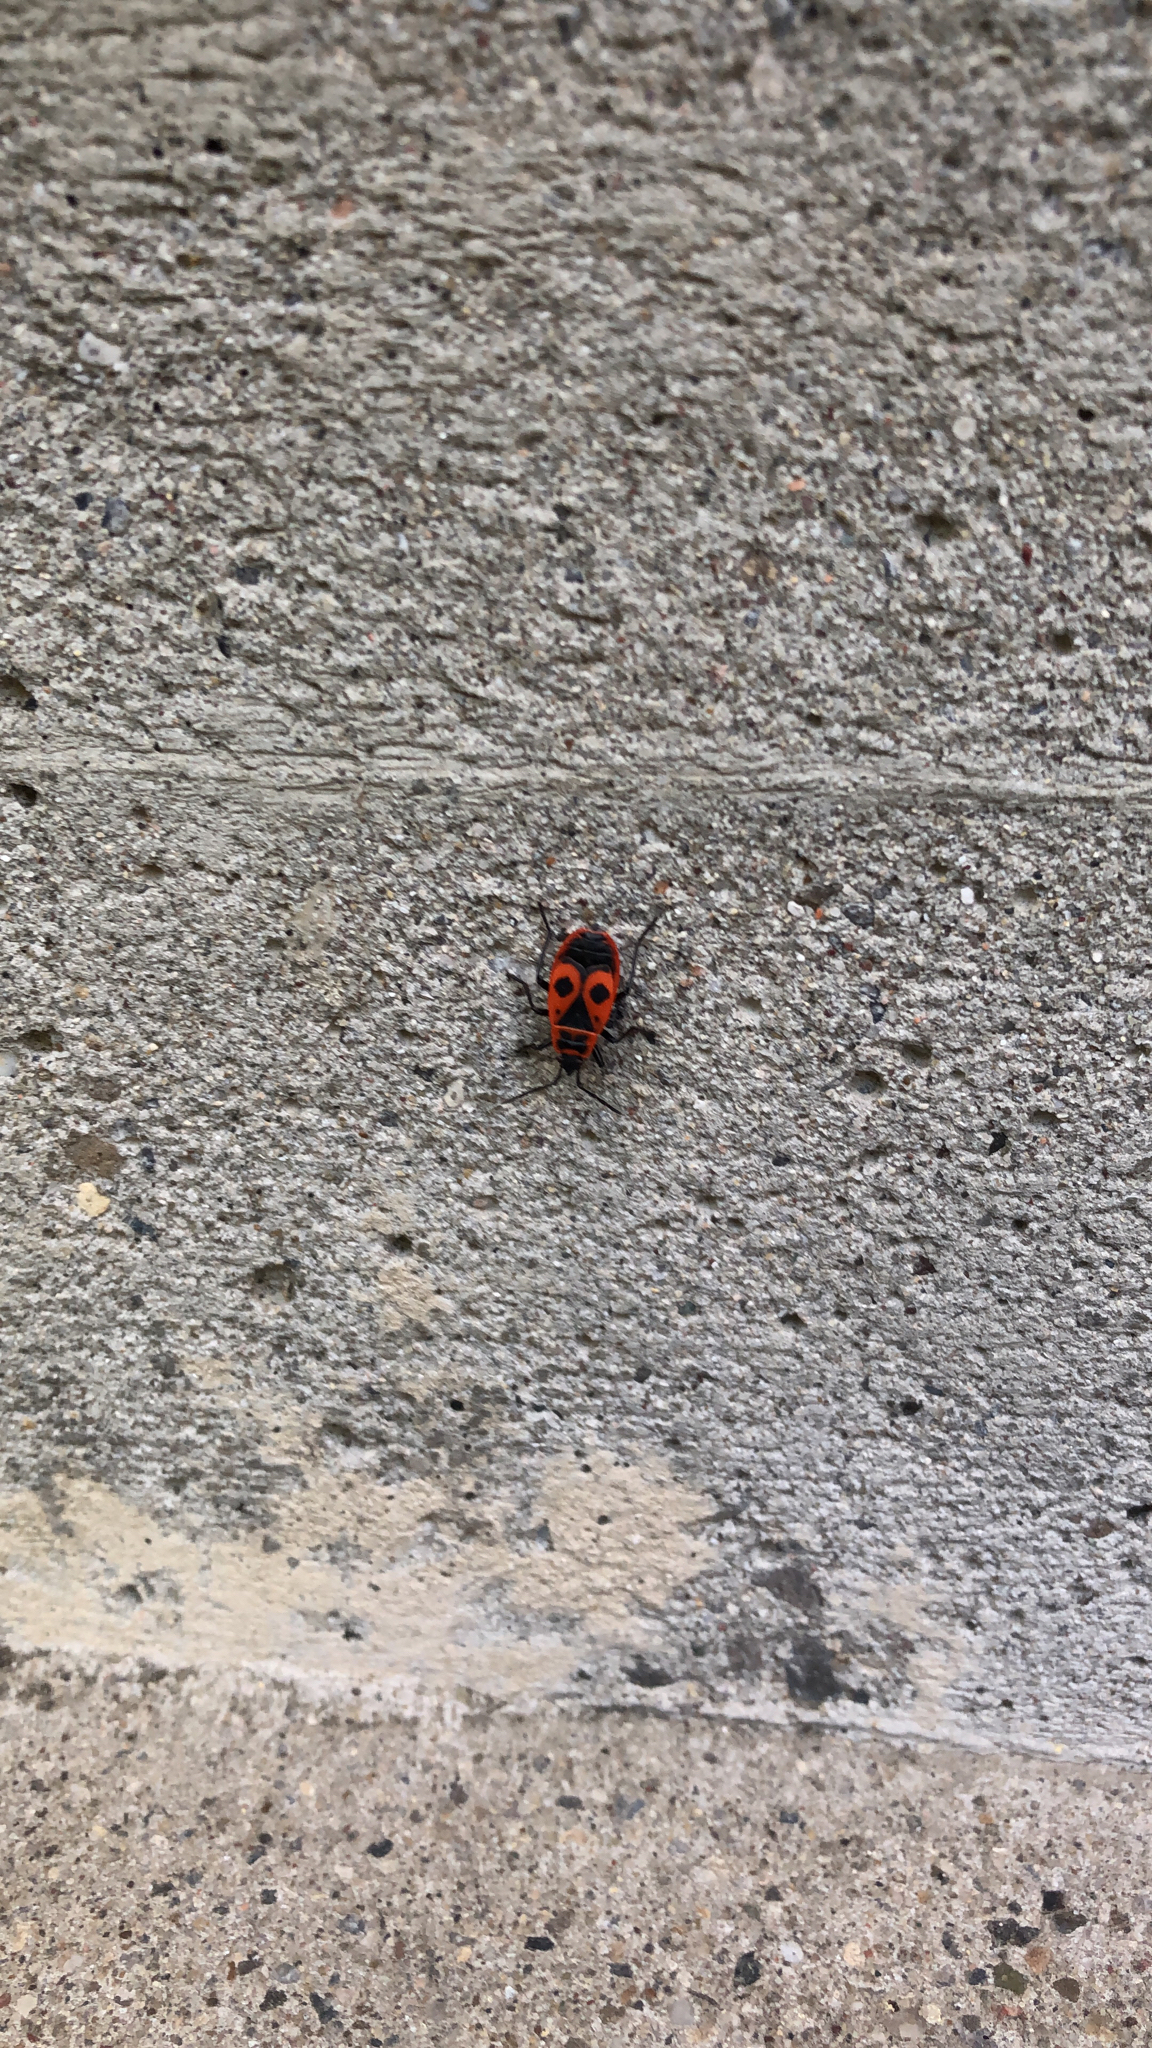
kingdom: Animalia
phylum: Arthropoda
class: Insecta
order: Hemiptera
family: Pyrrhocoridae
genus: Pyrrhocoris
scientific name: Pyrrhocoris apterus
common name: Firebug
